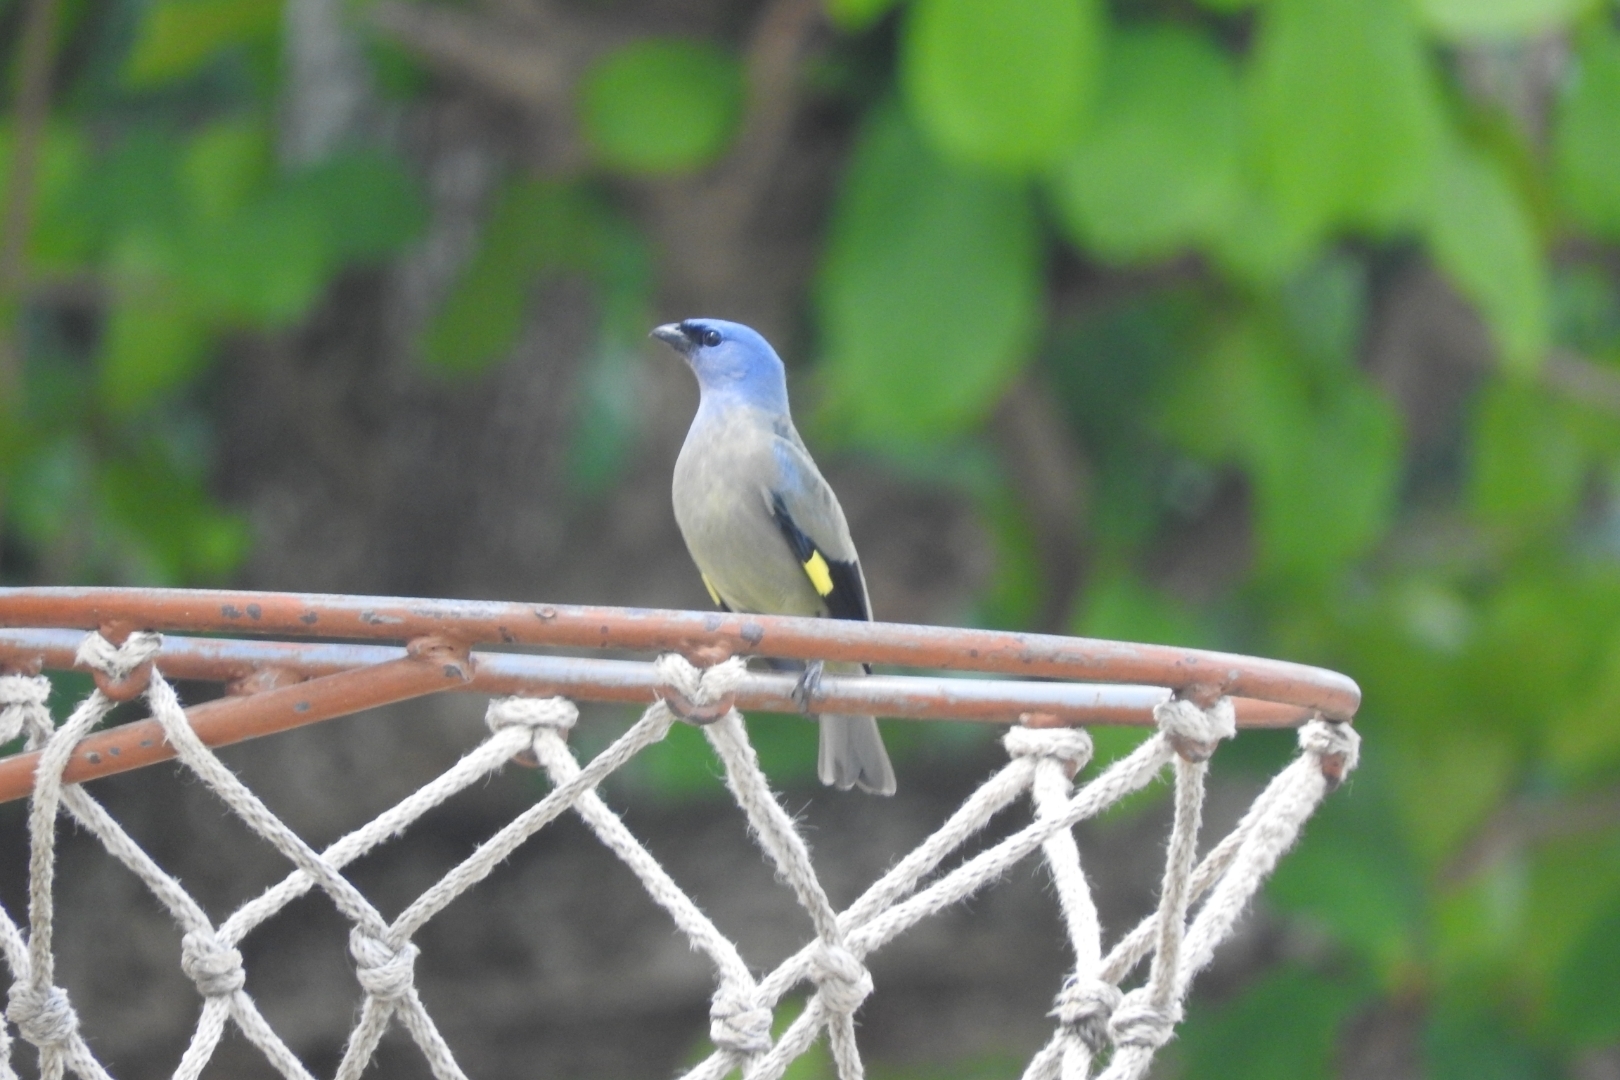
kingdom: Animalia
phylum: Chordata
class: Aves
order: Passeriformes
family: Thraupidae
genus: Thraupis
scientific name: Thraupis abbas
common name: Yellow-winged tanager
